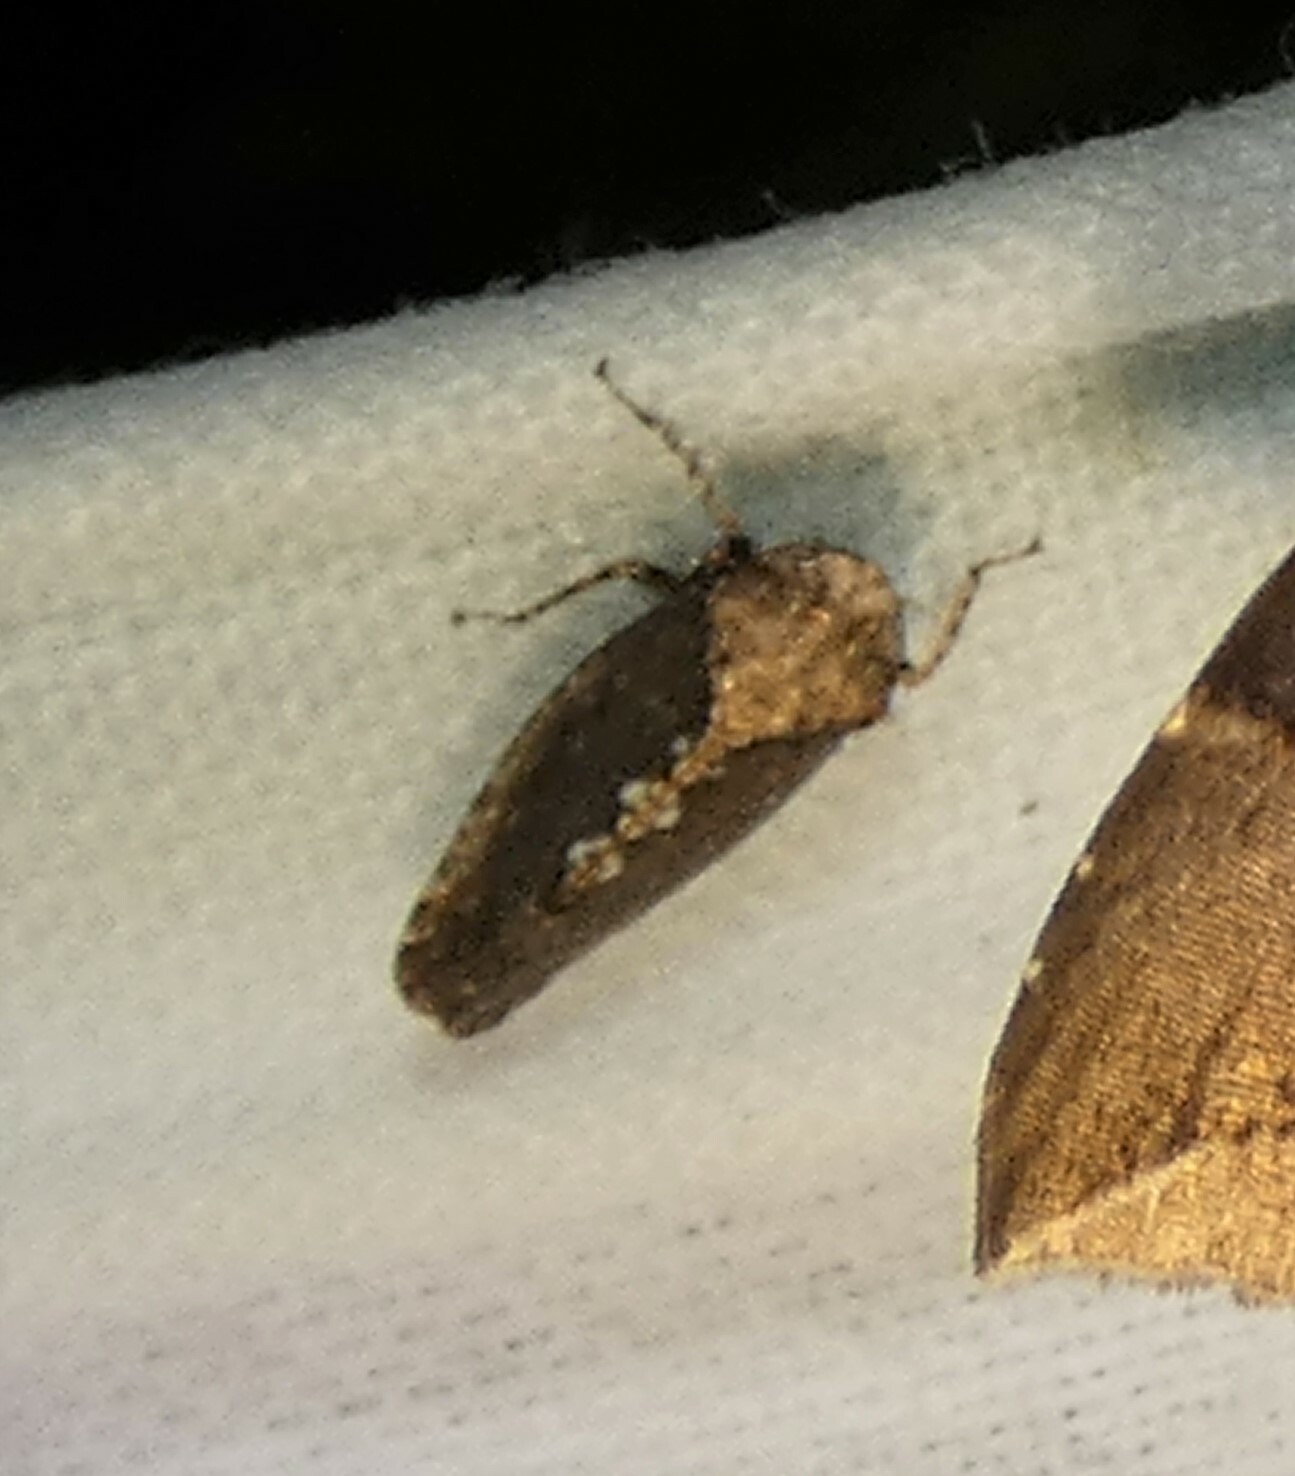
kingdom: Animalia
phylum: Arthropoda
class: Insecta
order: Hemiptera
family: Cicadellidae
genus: Excultanus
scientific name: Excultanus excultus
